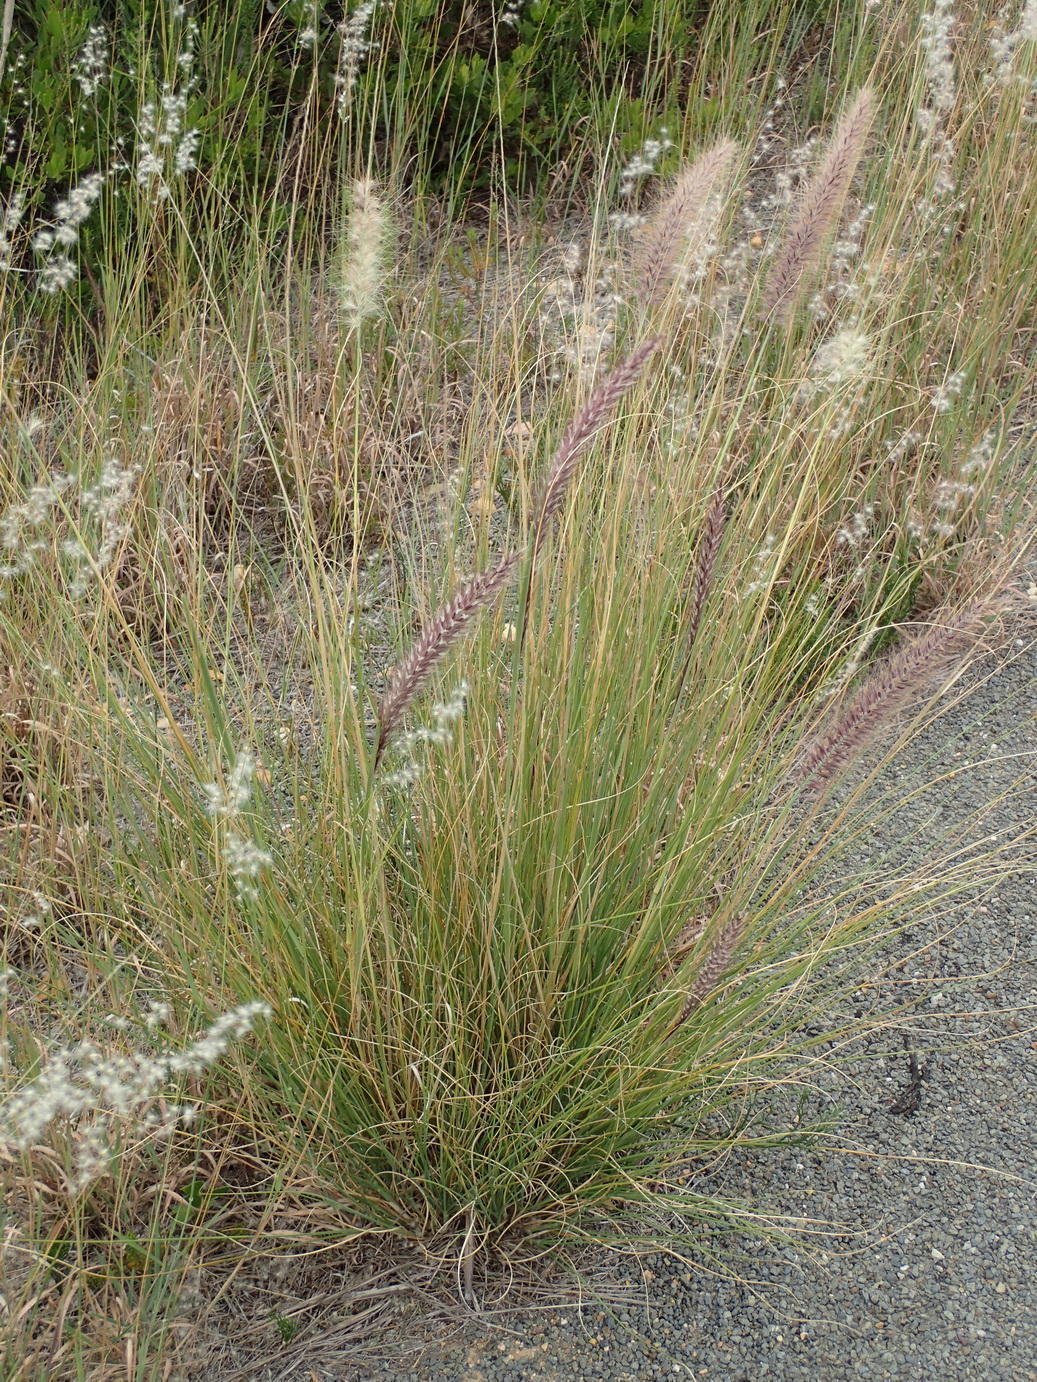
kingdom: Plantae
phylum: Tracheophyta
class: Liliopsida
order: Poales
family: Poaceae
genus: Cenchrus
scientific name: Cenchrus setaceus
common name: Crimson fountaingrass
